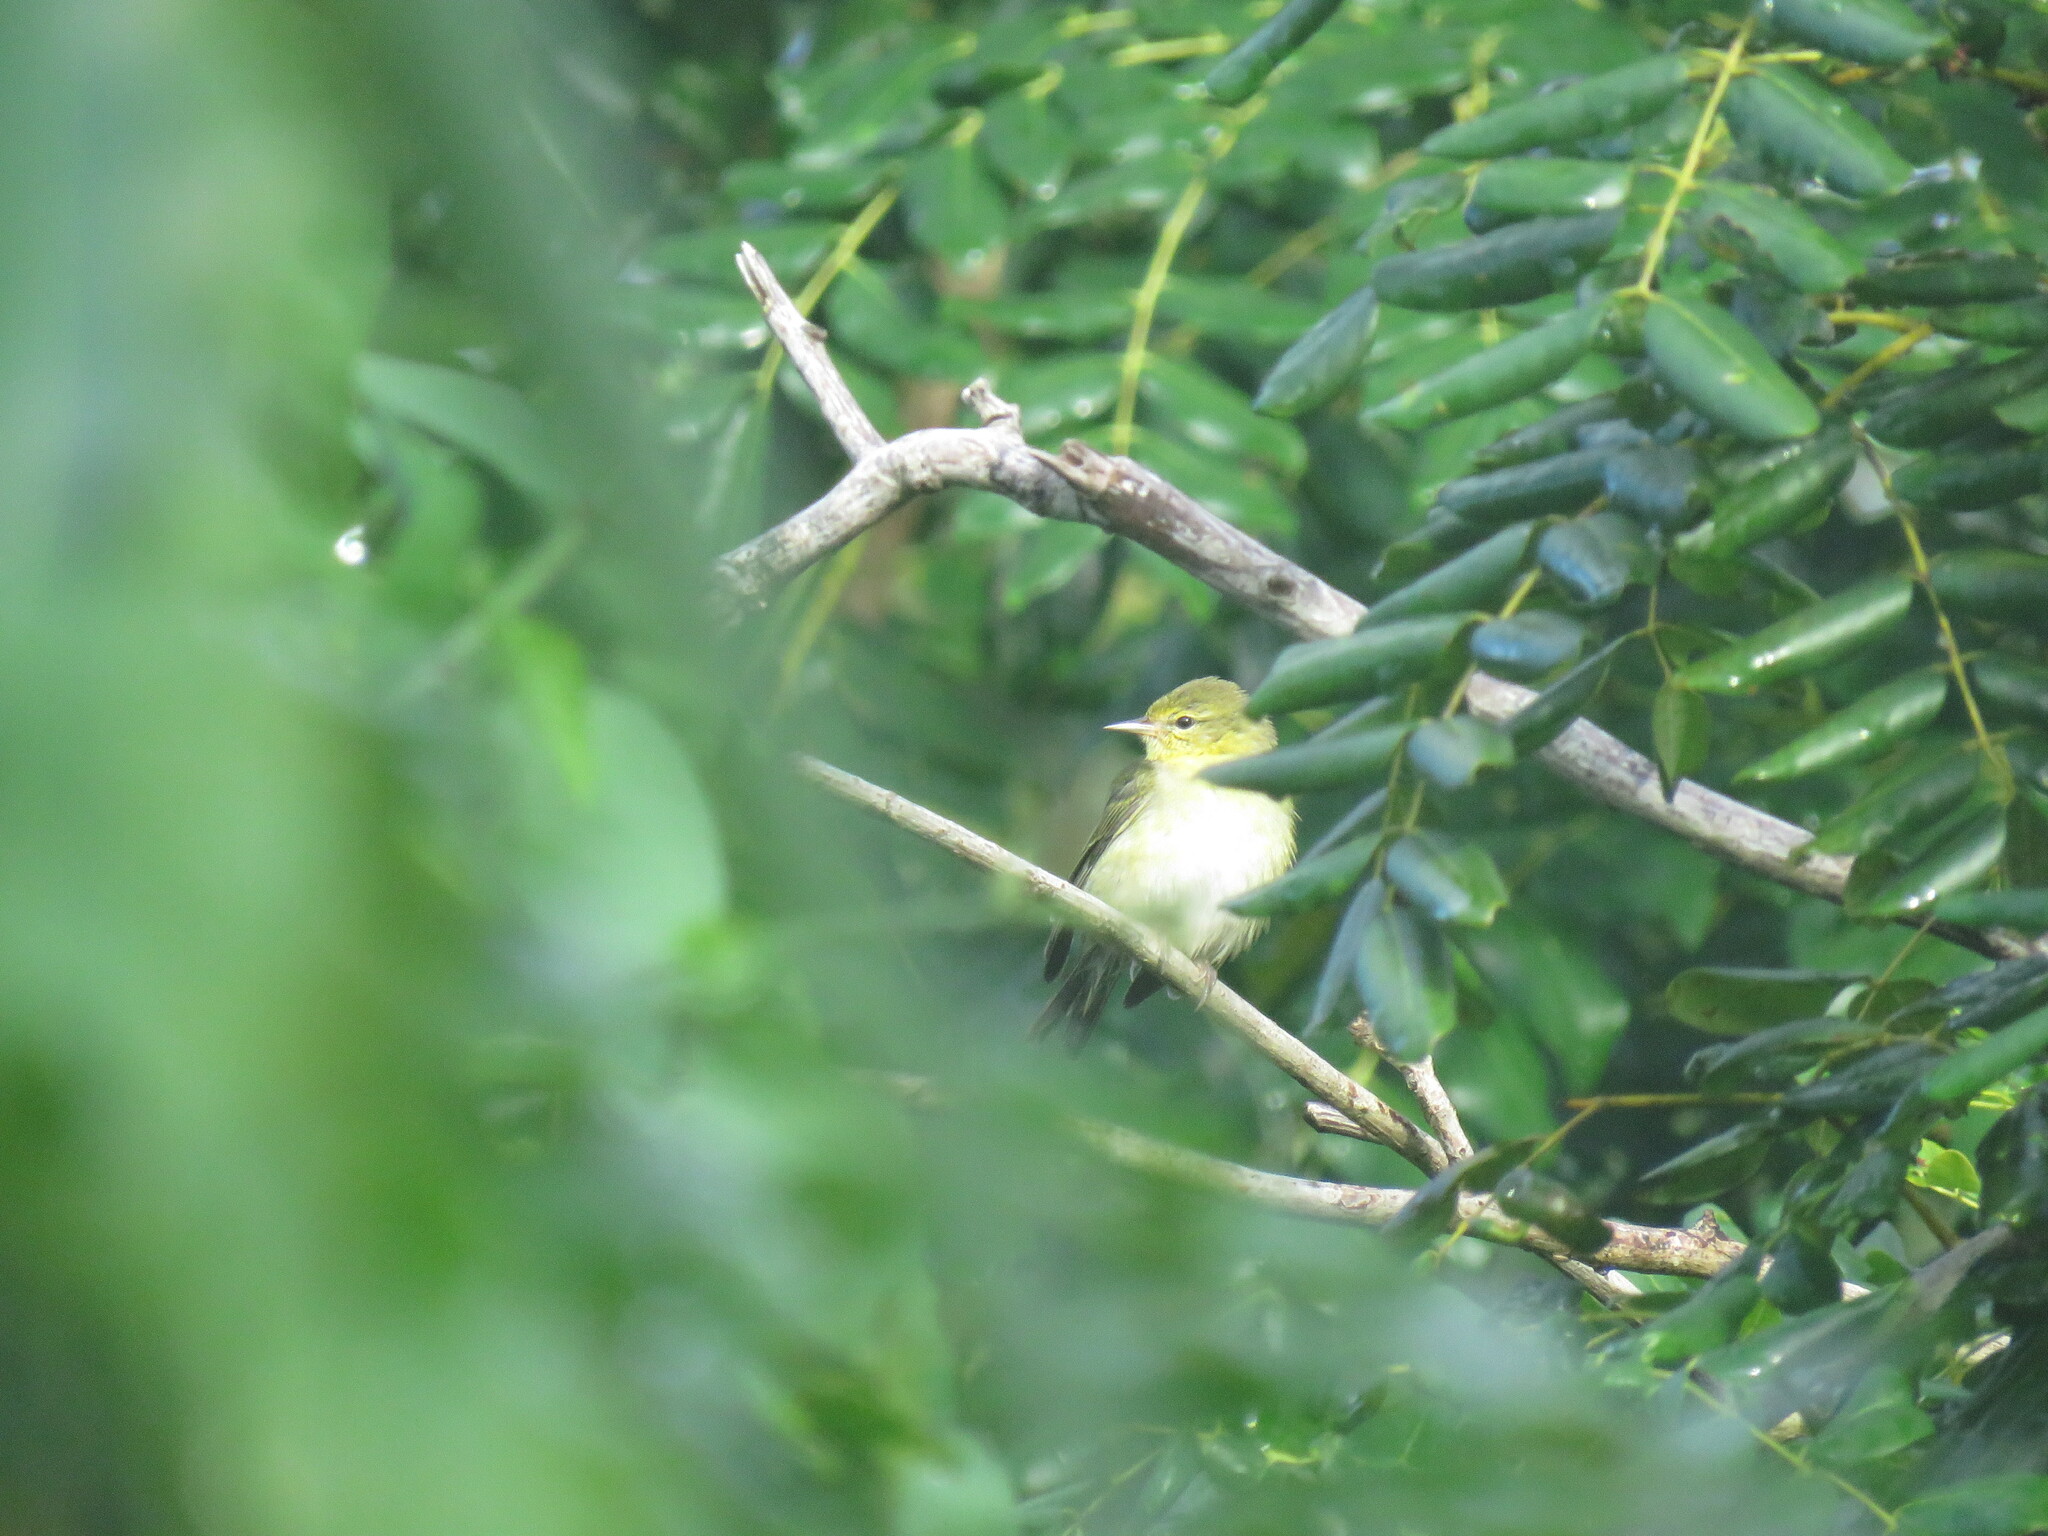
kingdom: Animalia
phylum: Chordata
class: Aves
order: Passeriformes
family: Parulidae
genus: Leiothlypis
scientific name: Leiothlypis peregrina
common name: Tennessee warbler
